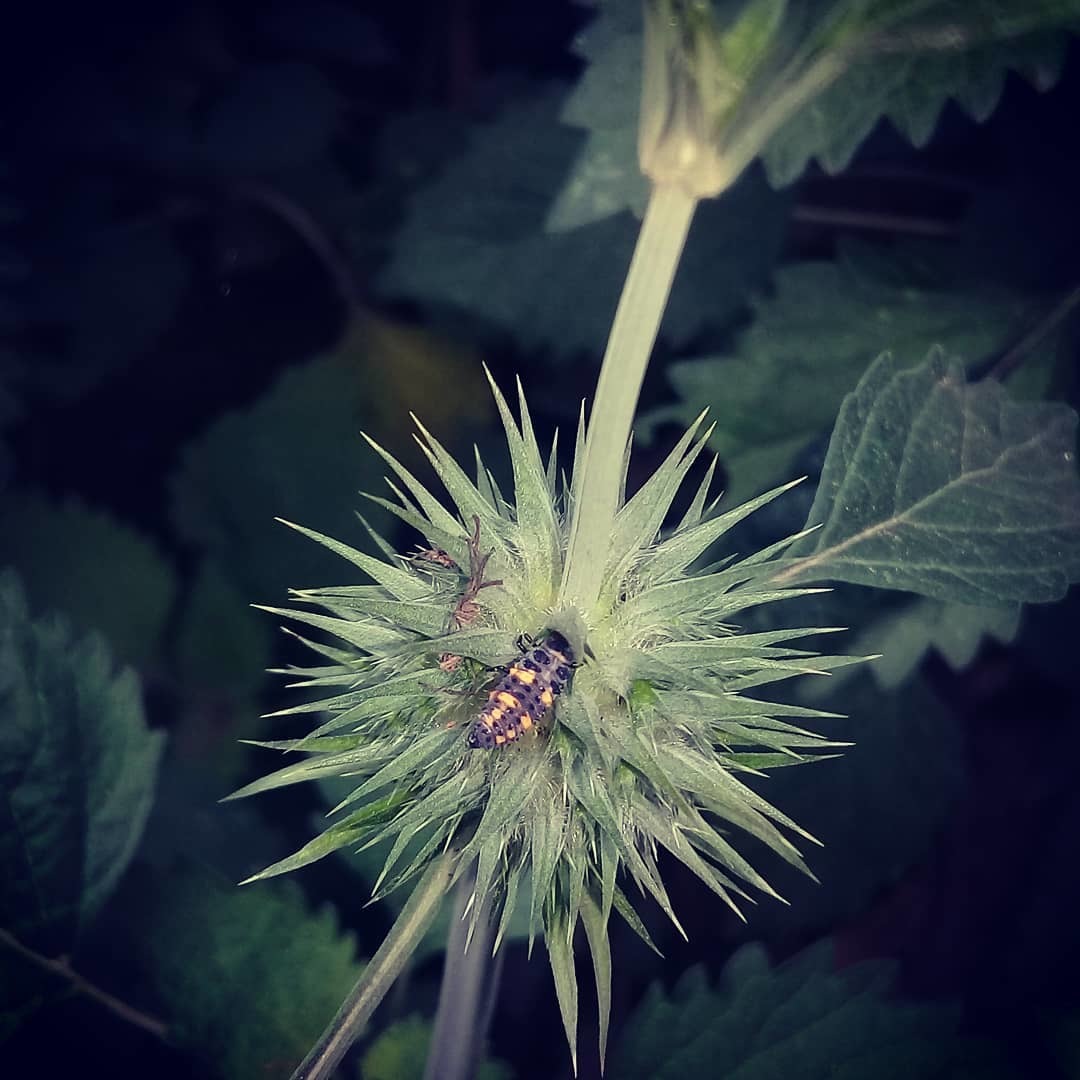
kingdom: Animalia
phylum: Arthropoda
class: Insecta
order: Coleoptera
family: Coccinellidae
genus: Hippodamia
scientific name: Hippodamia convergens
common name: Convergent lady beetle
